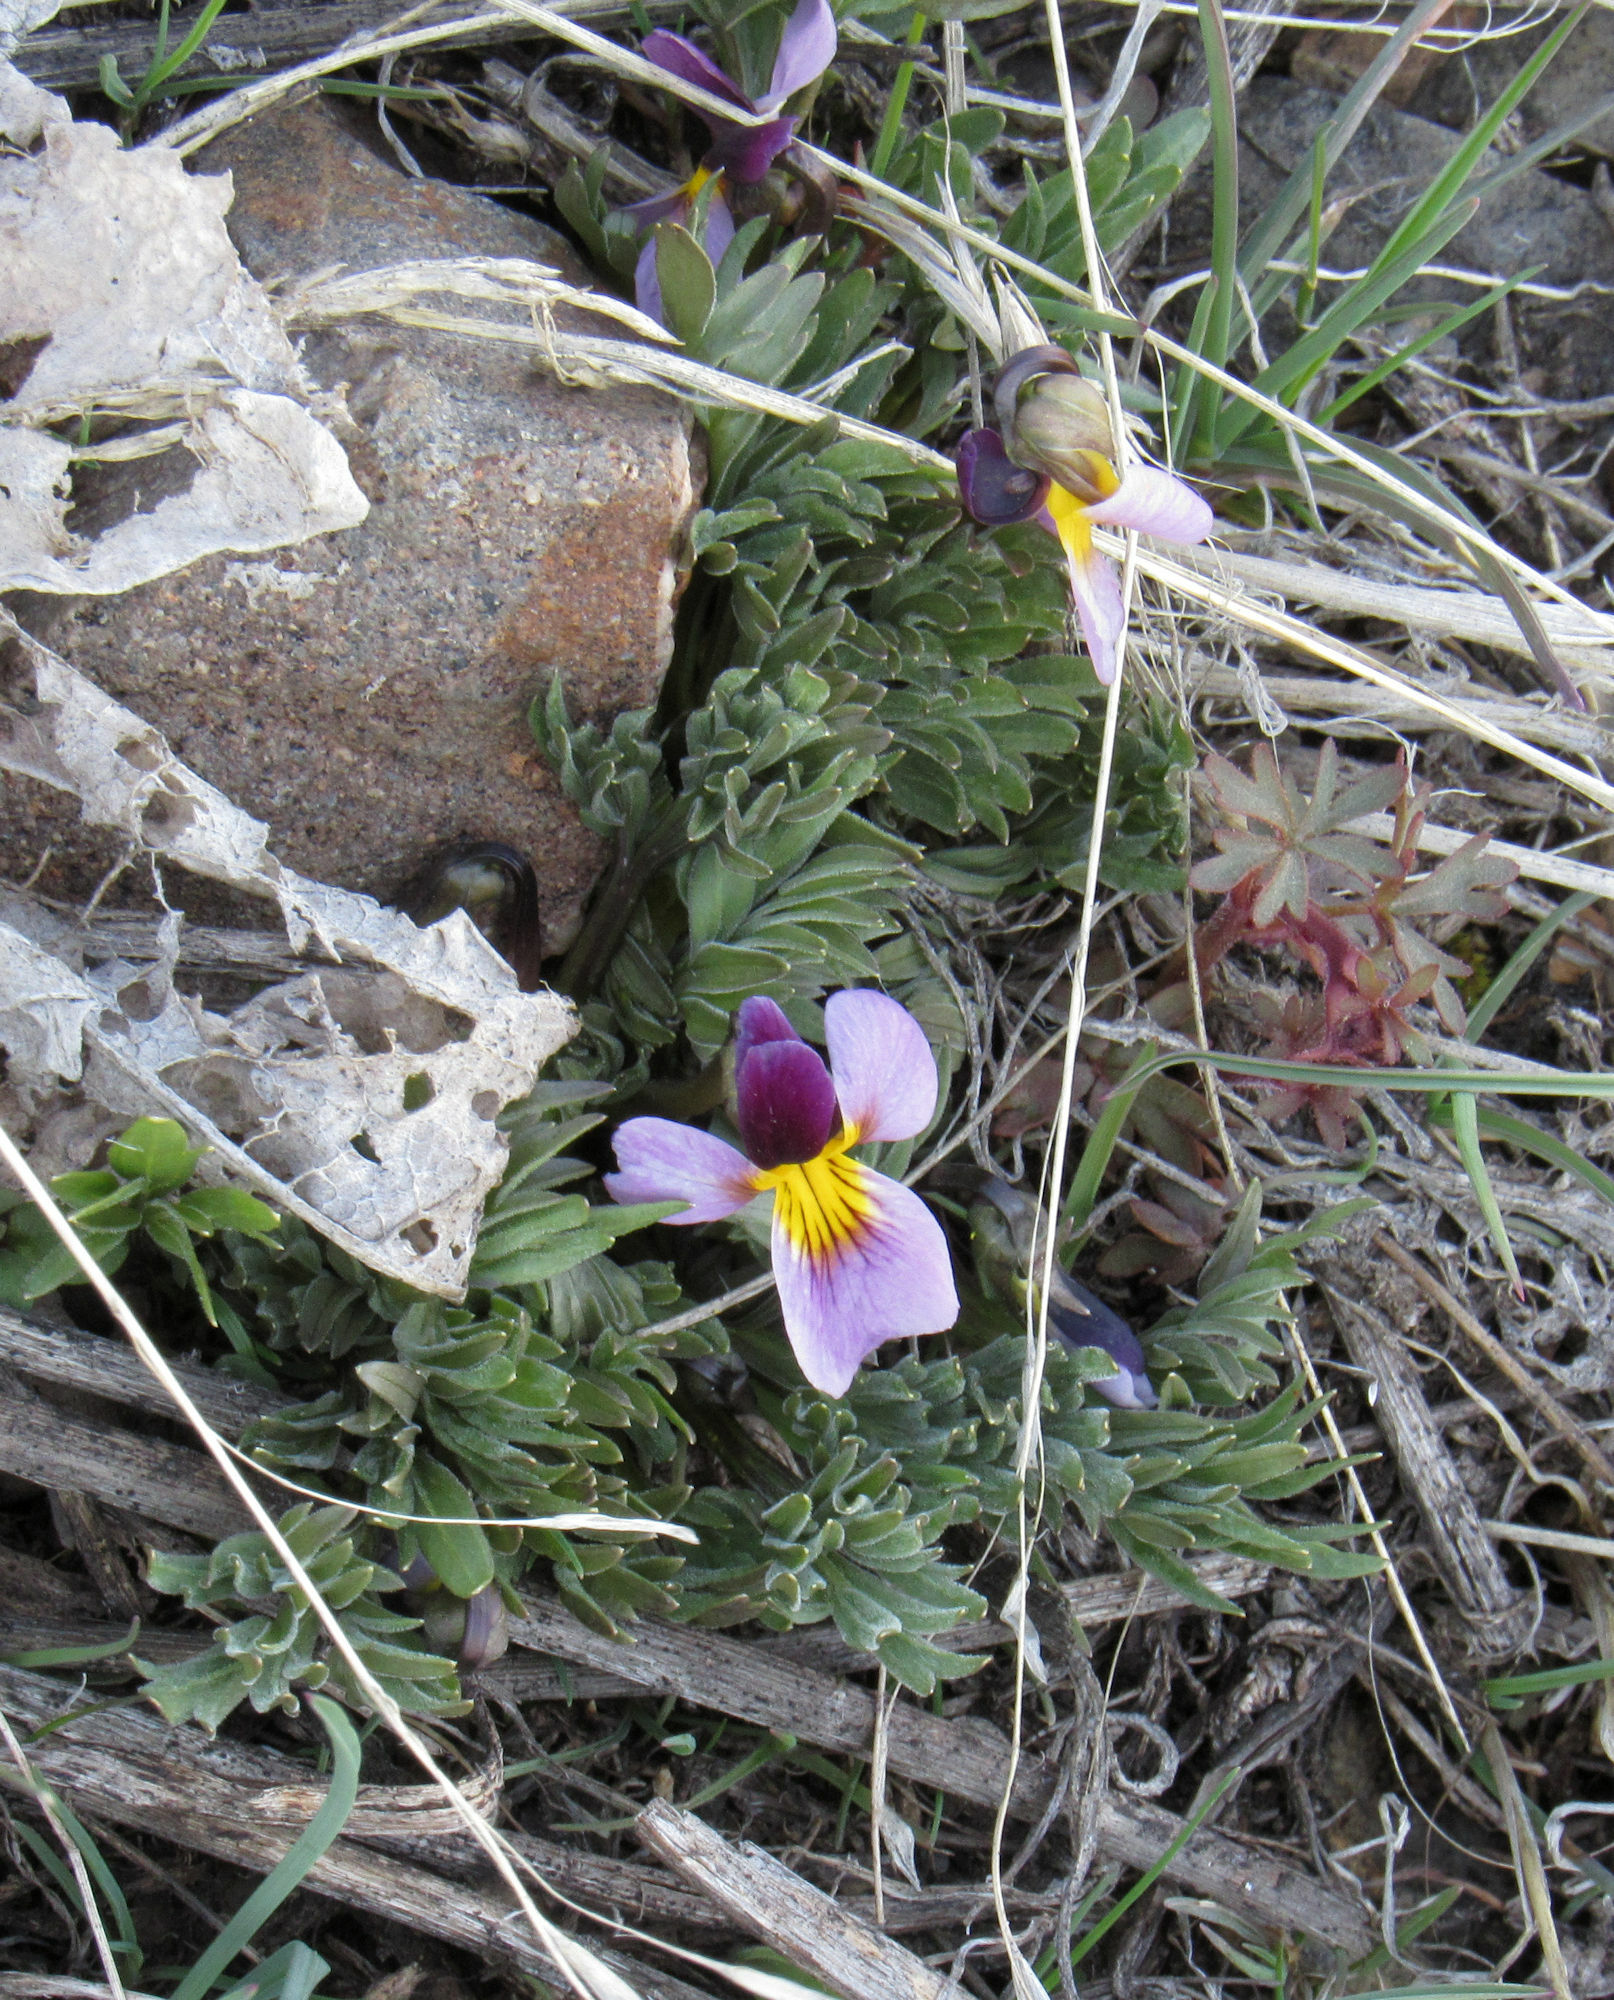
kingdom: Plantae
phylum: Tracheophyta
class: Magnoliopsida
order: Malpighiales
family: Violaceae
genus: Viola
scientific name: Viola beckwithii
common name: Beckwith's violet
